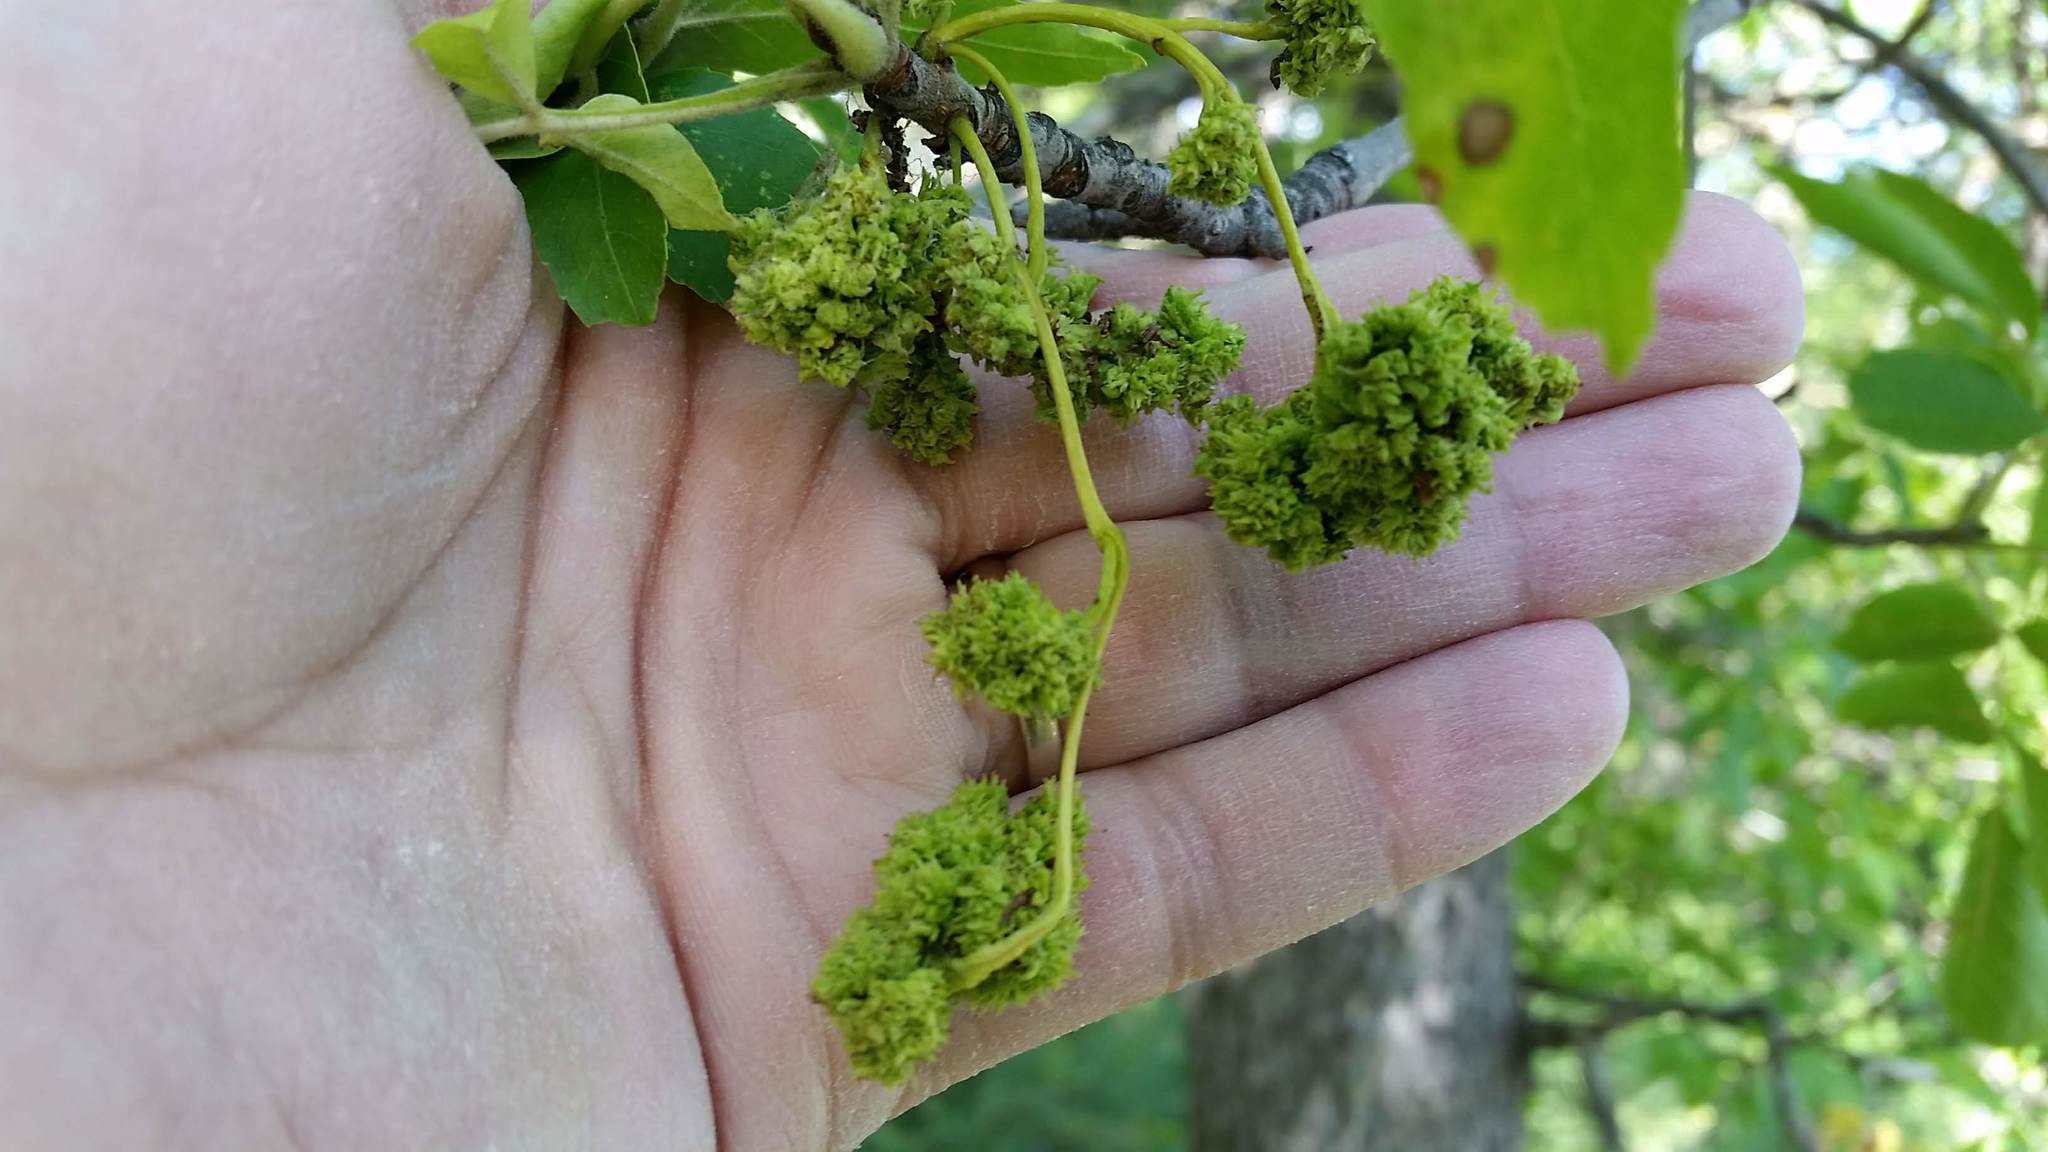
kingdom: Animalia
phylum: Arthropoda
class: Arachnida
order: Trombidiformes
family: Eriophyidae
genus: Aceria
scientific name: Aceria fraxiniflora
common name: Ash flower gall mite
